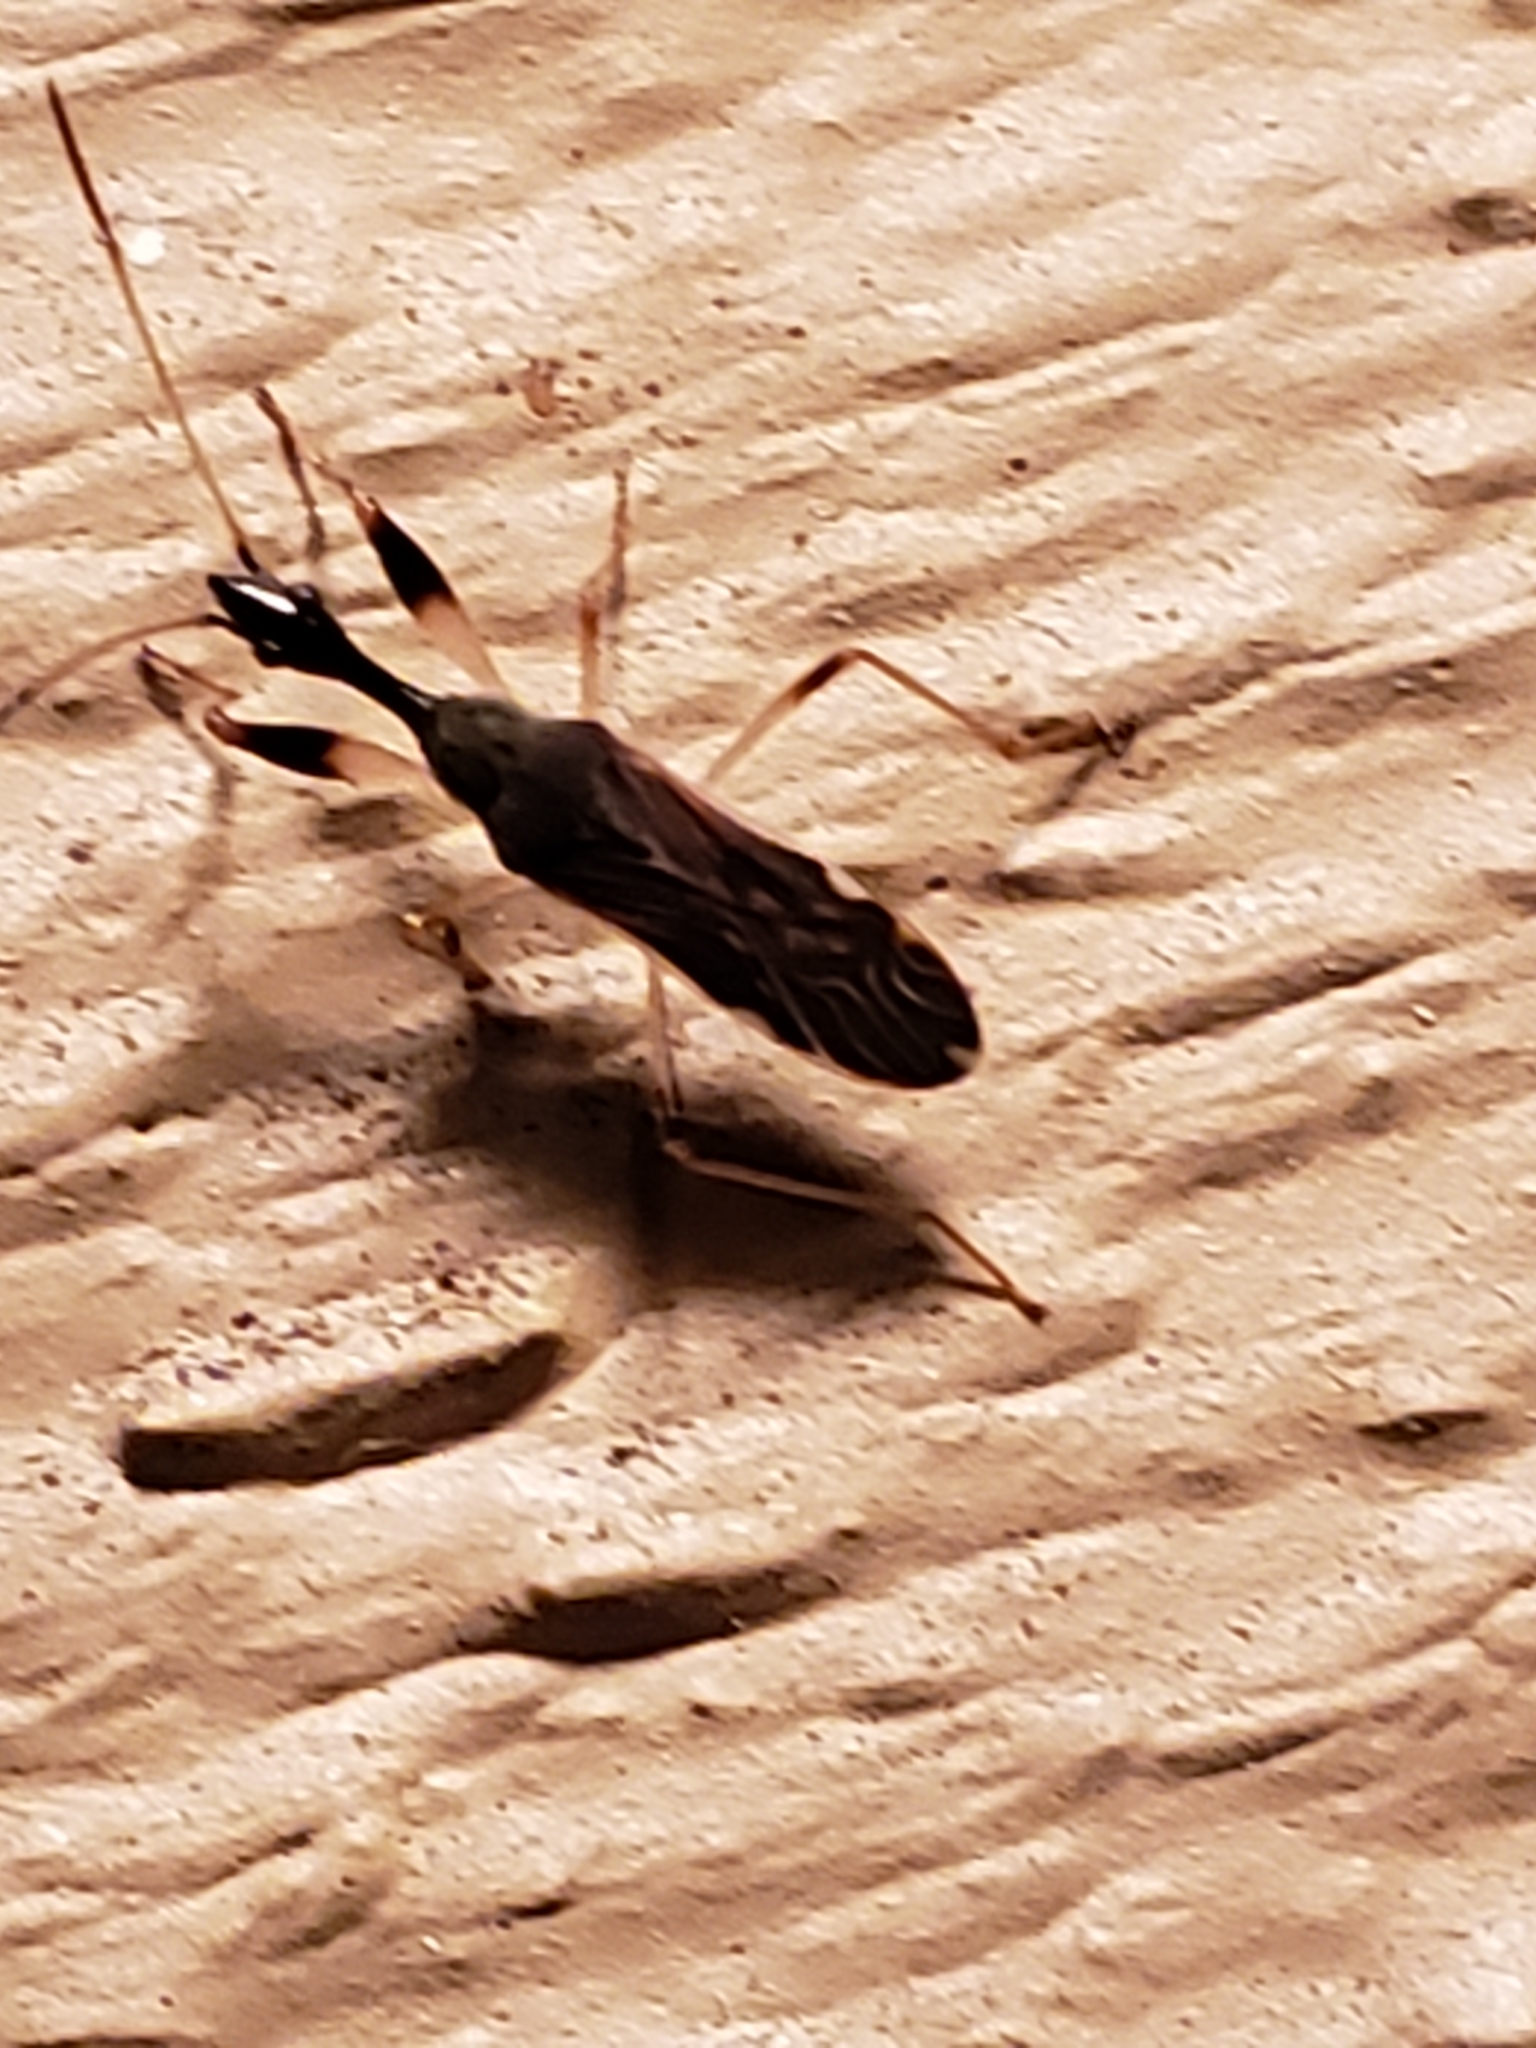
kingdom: Animalia
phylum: Arthropoda
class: Insecta
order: Hemiptera
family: Rhyparochromidae
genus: Myodocha
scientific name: Myodocha serripes
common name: Long-necked seed bug
